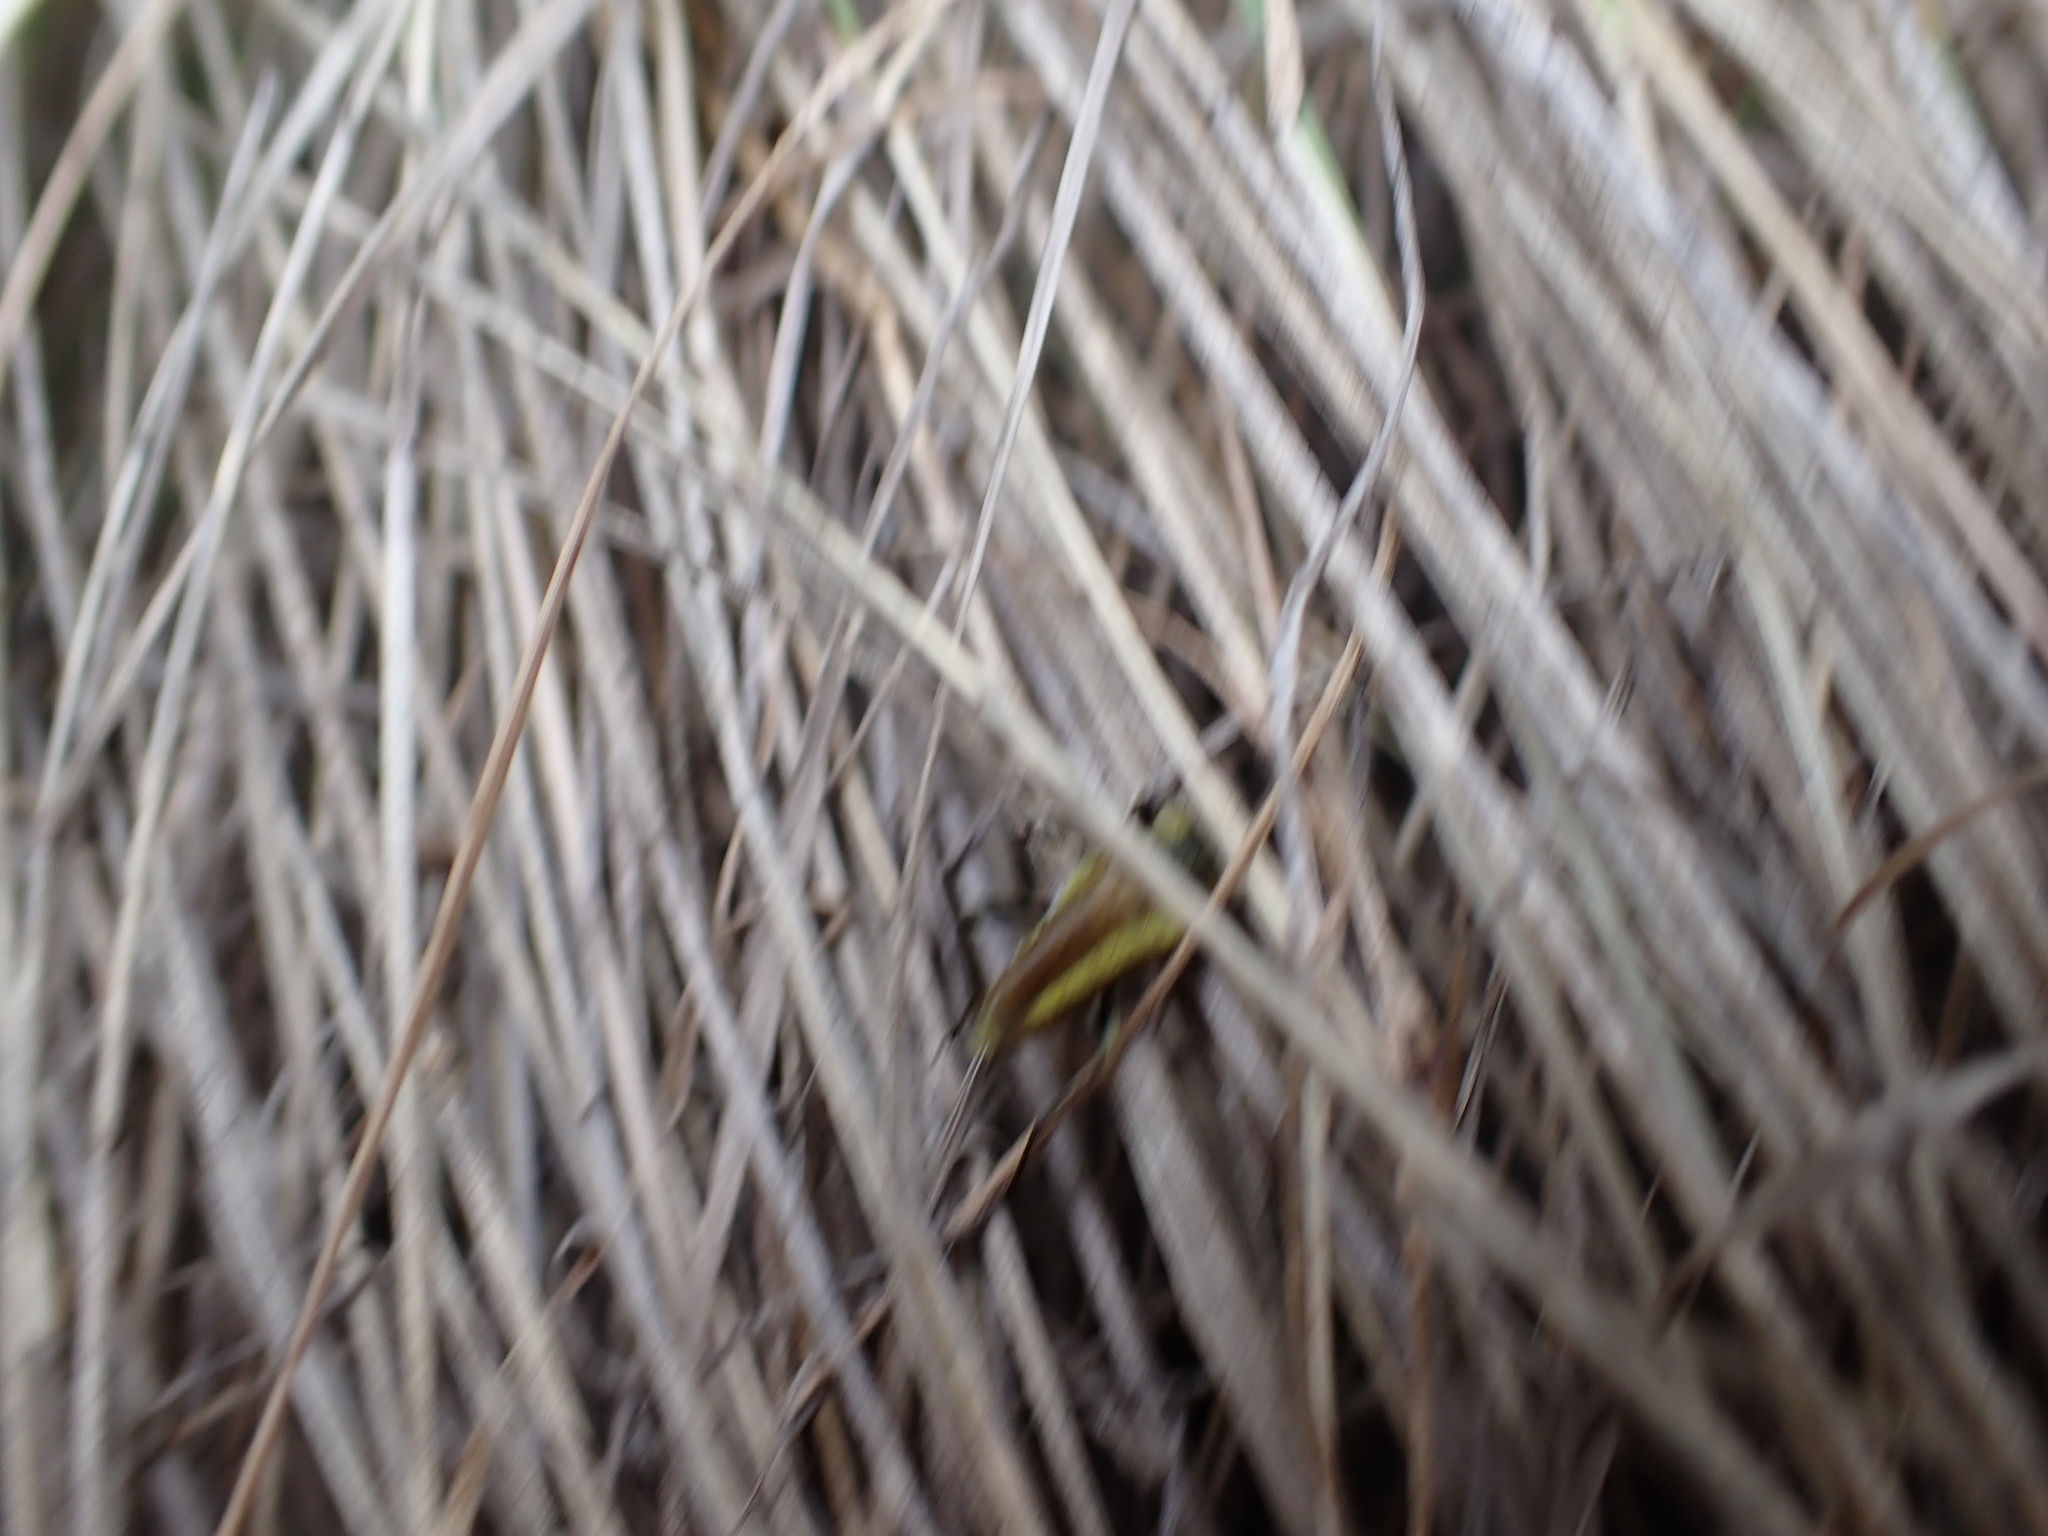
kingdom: Animalia
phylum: Arthropoda
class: Insecta
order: Coleoptera
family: Cerambycidae
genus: Cosmosalia
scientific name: Cosmosalia chrysocoma
